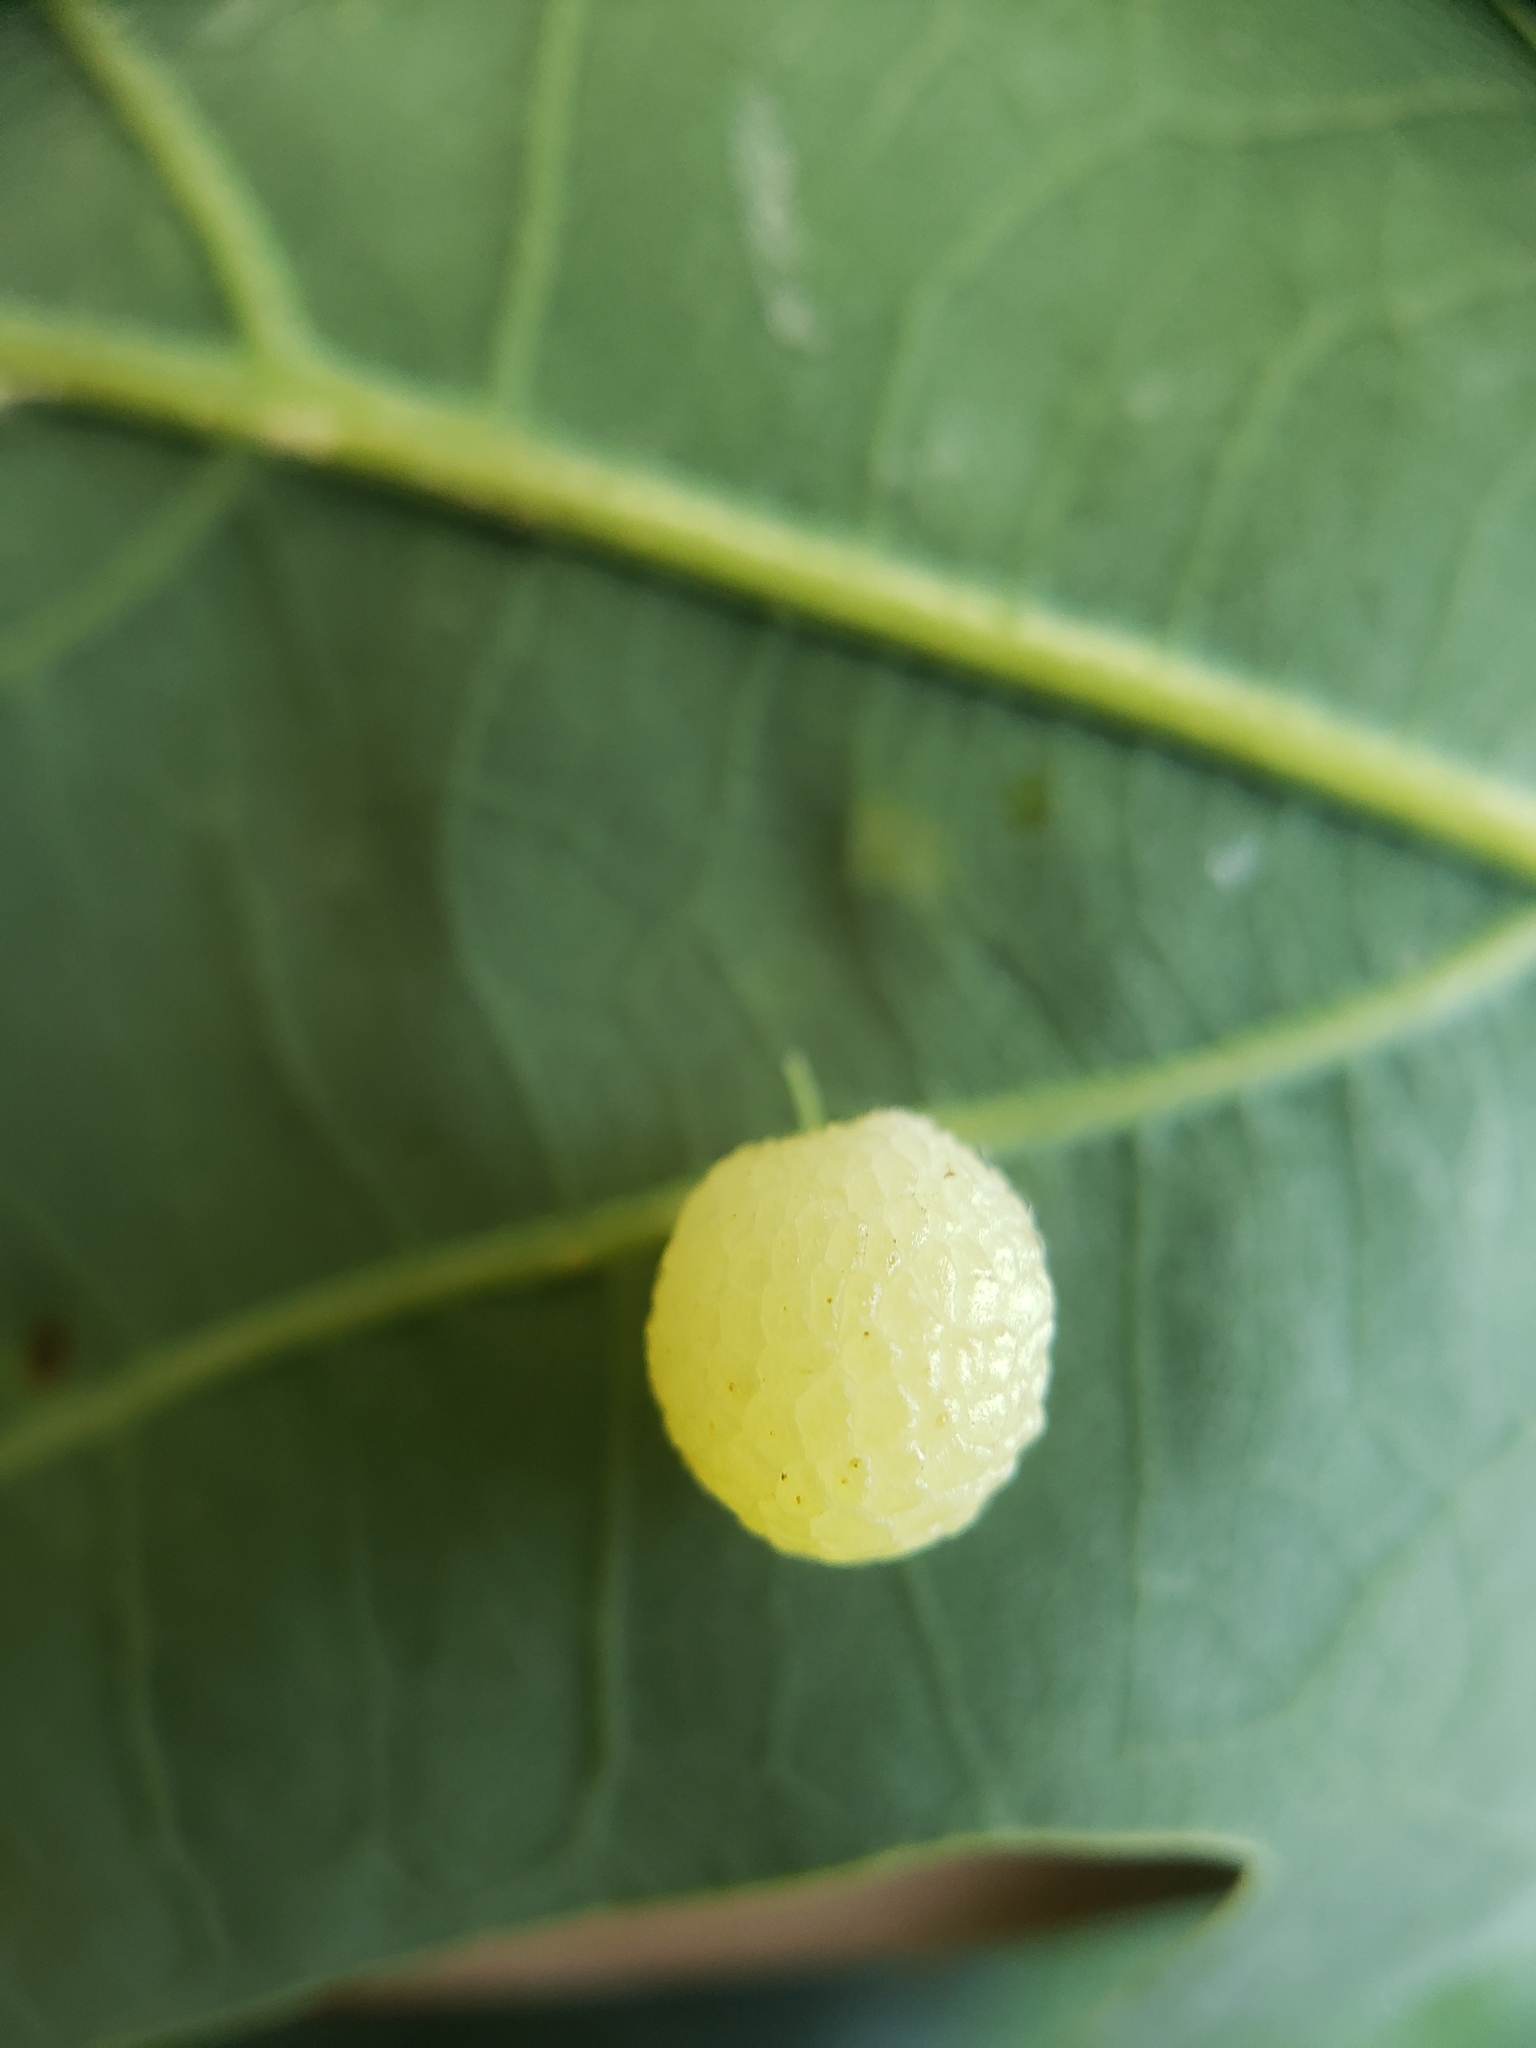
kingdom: Animalia
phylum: Arthropoda
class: Insecta
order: Hymenoptera
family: Cynipidae
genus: Acraspis
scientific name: Acraspis
